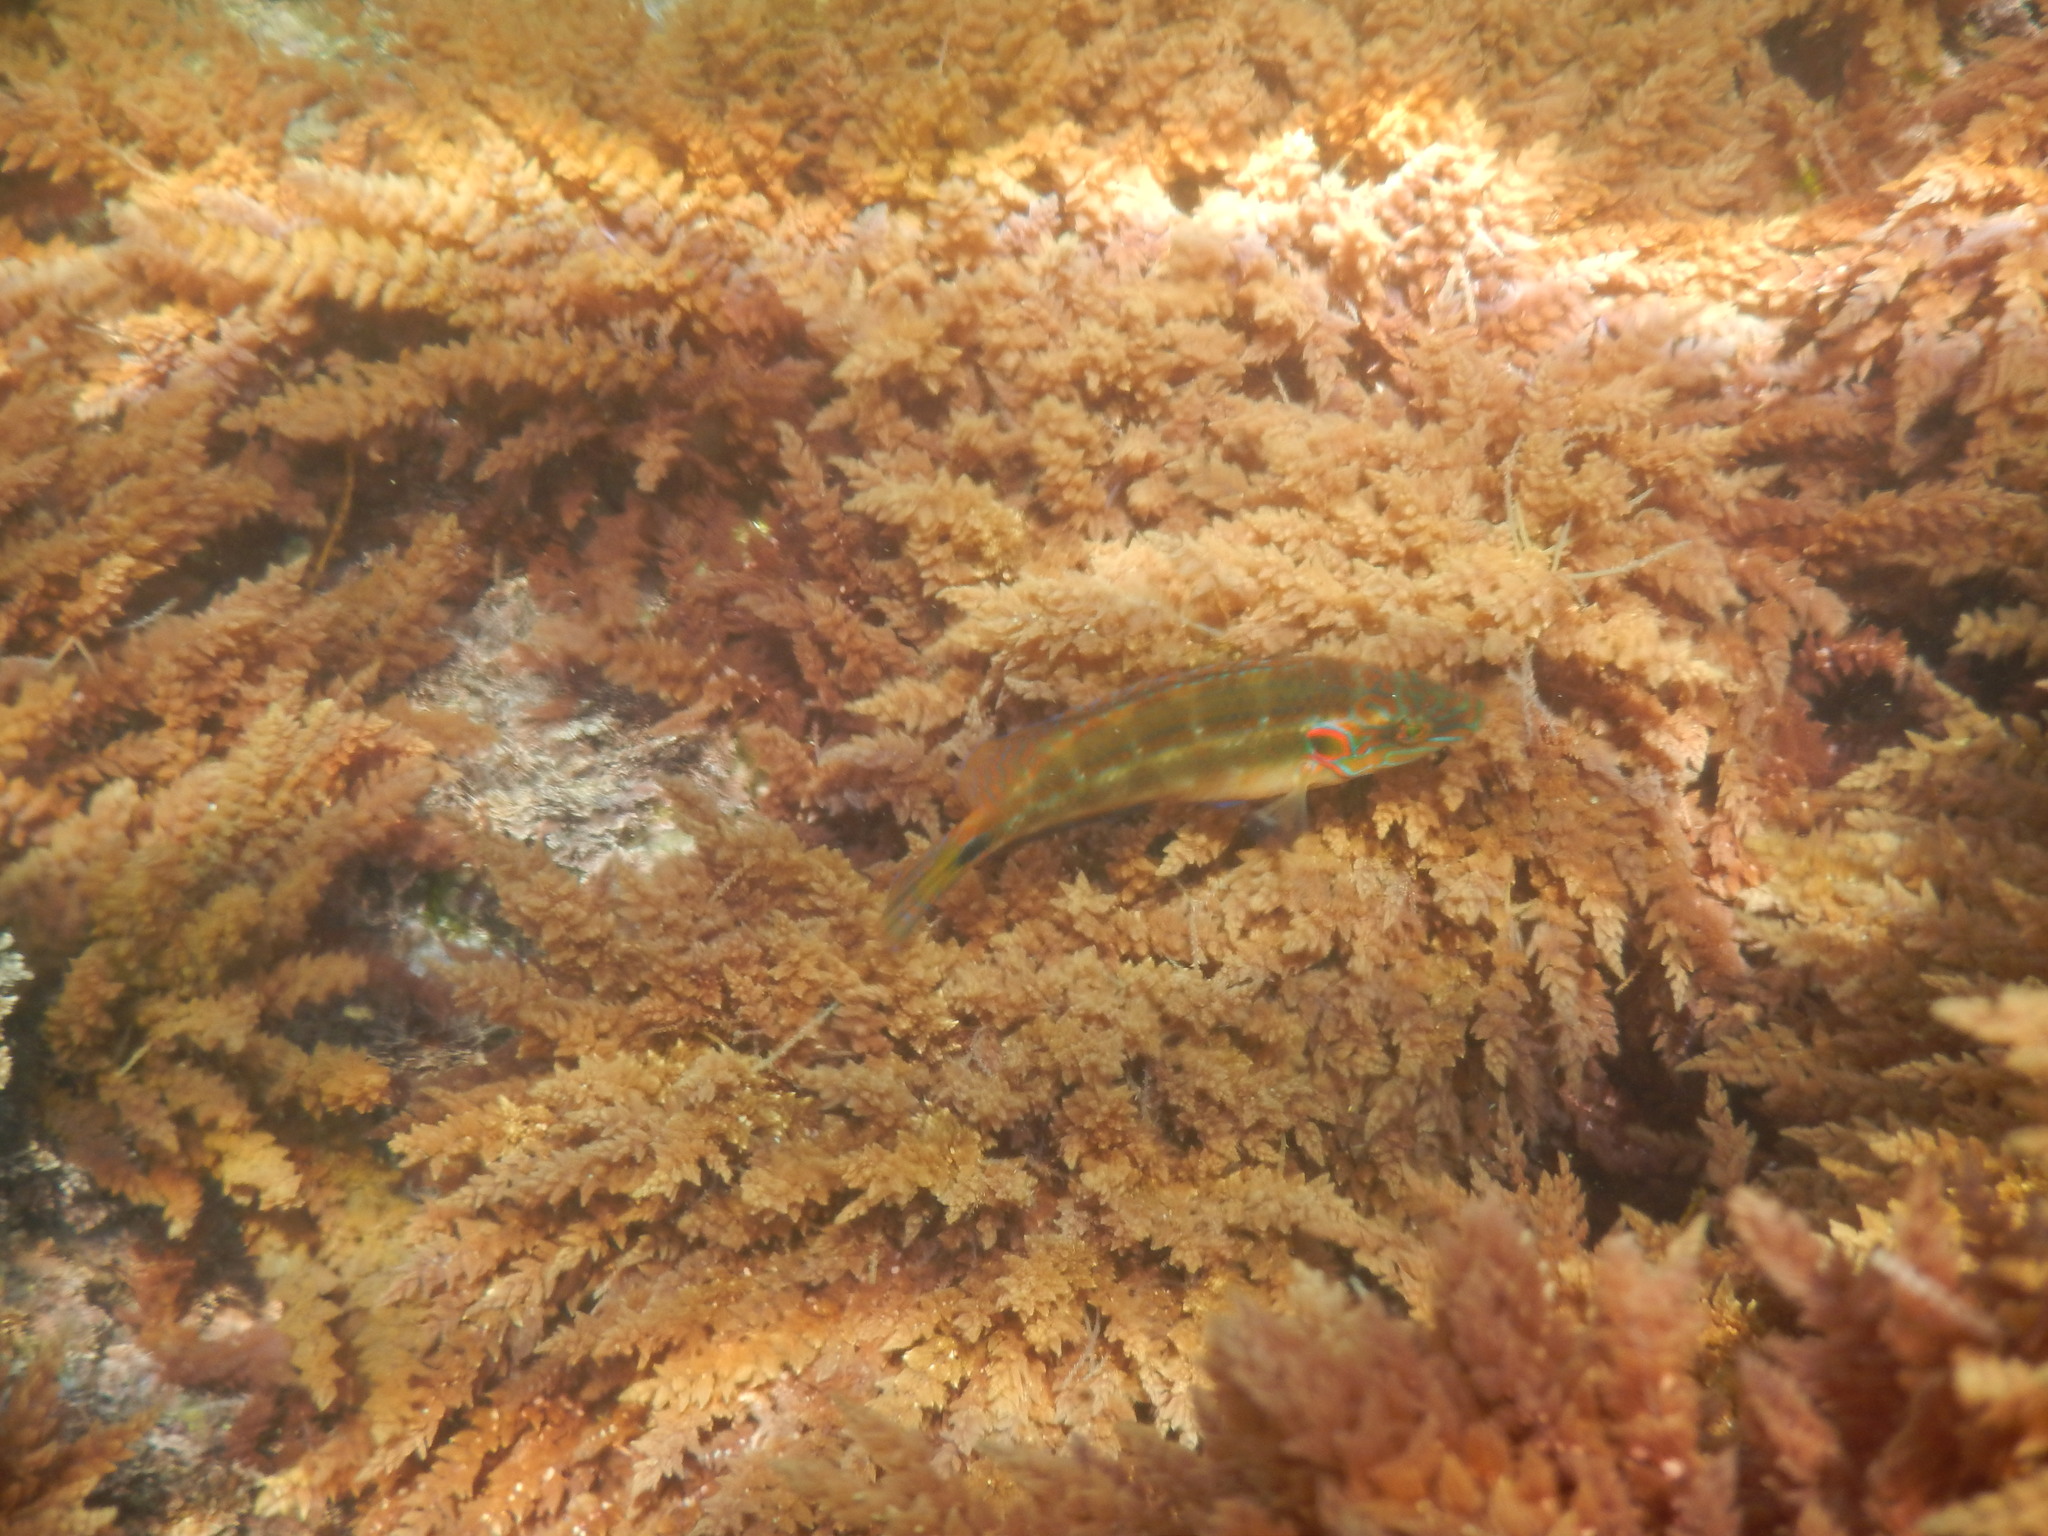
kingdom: Animalia
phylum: Chordata
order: Perciformes
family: Labridae
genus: Symphodus
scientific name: Symphodus ocellatus
